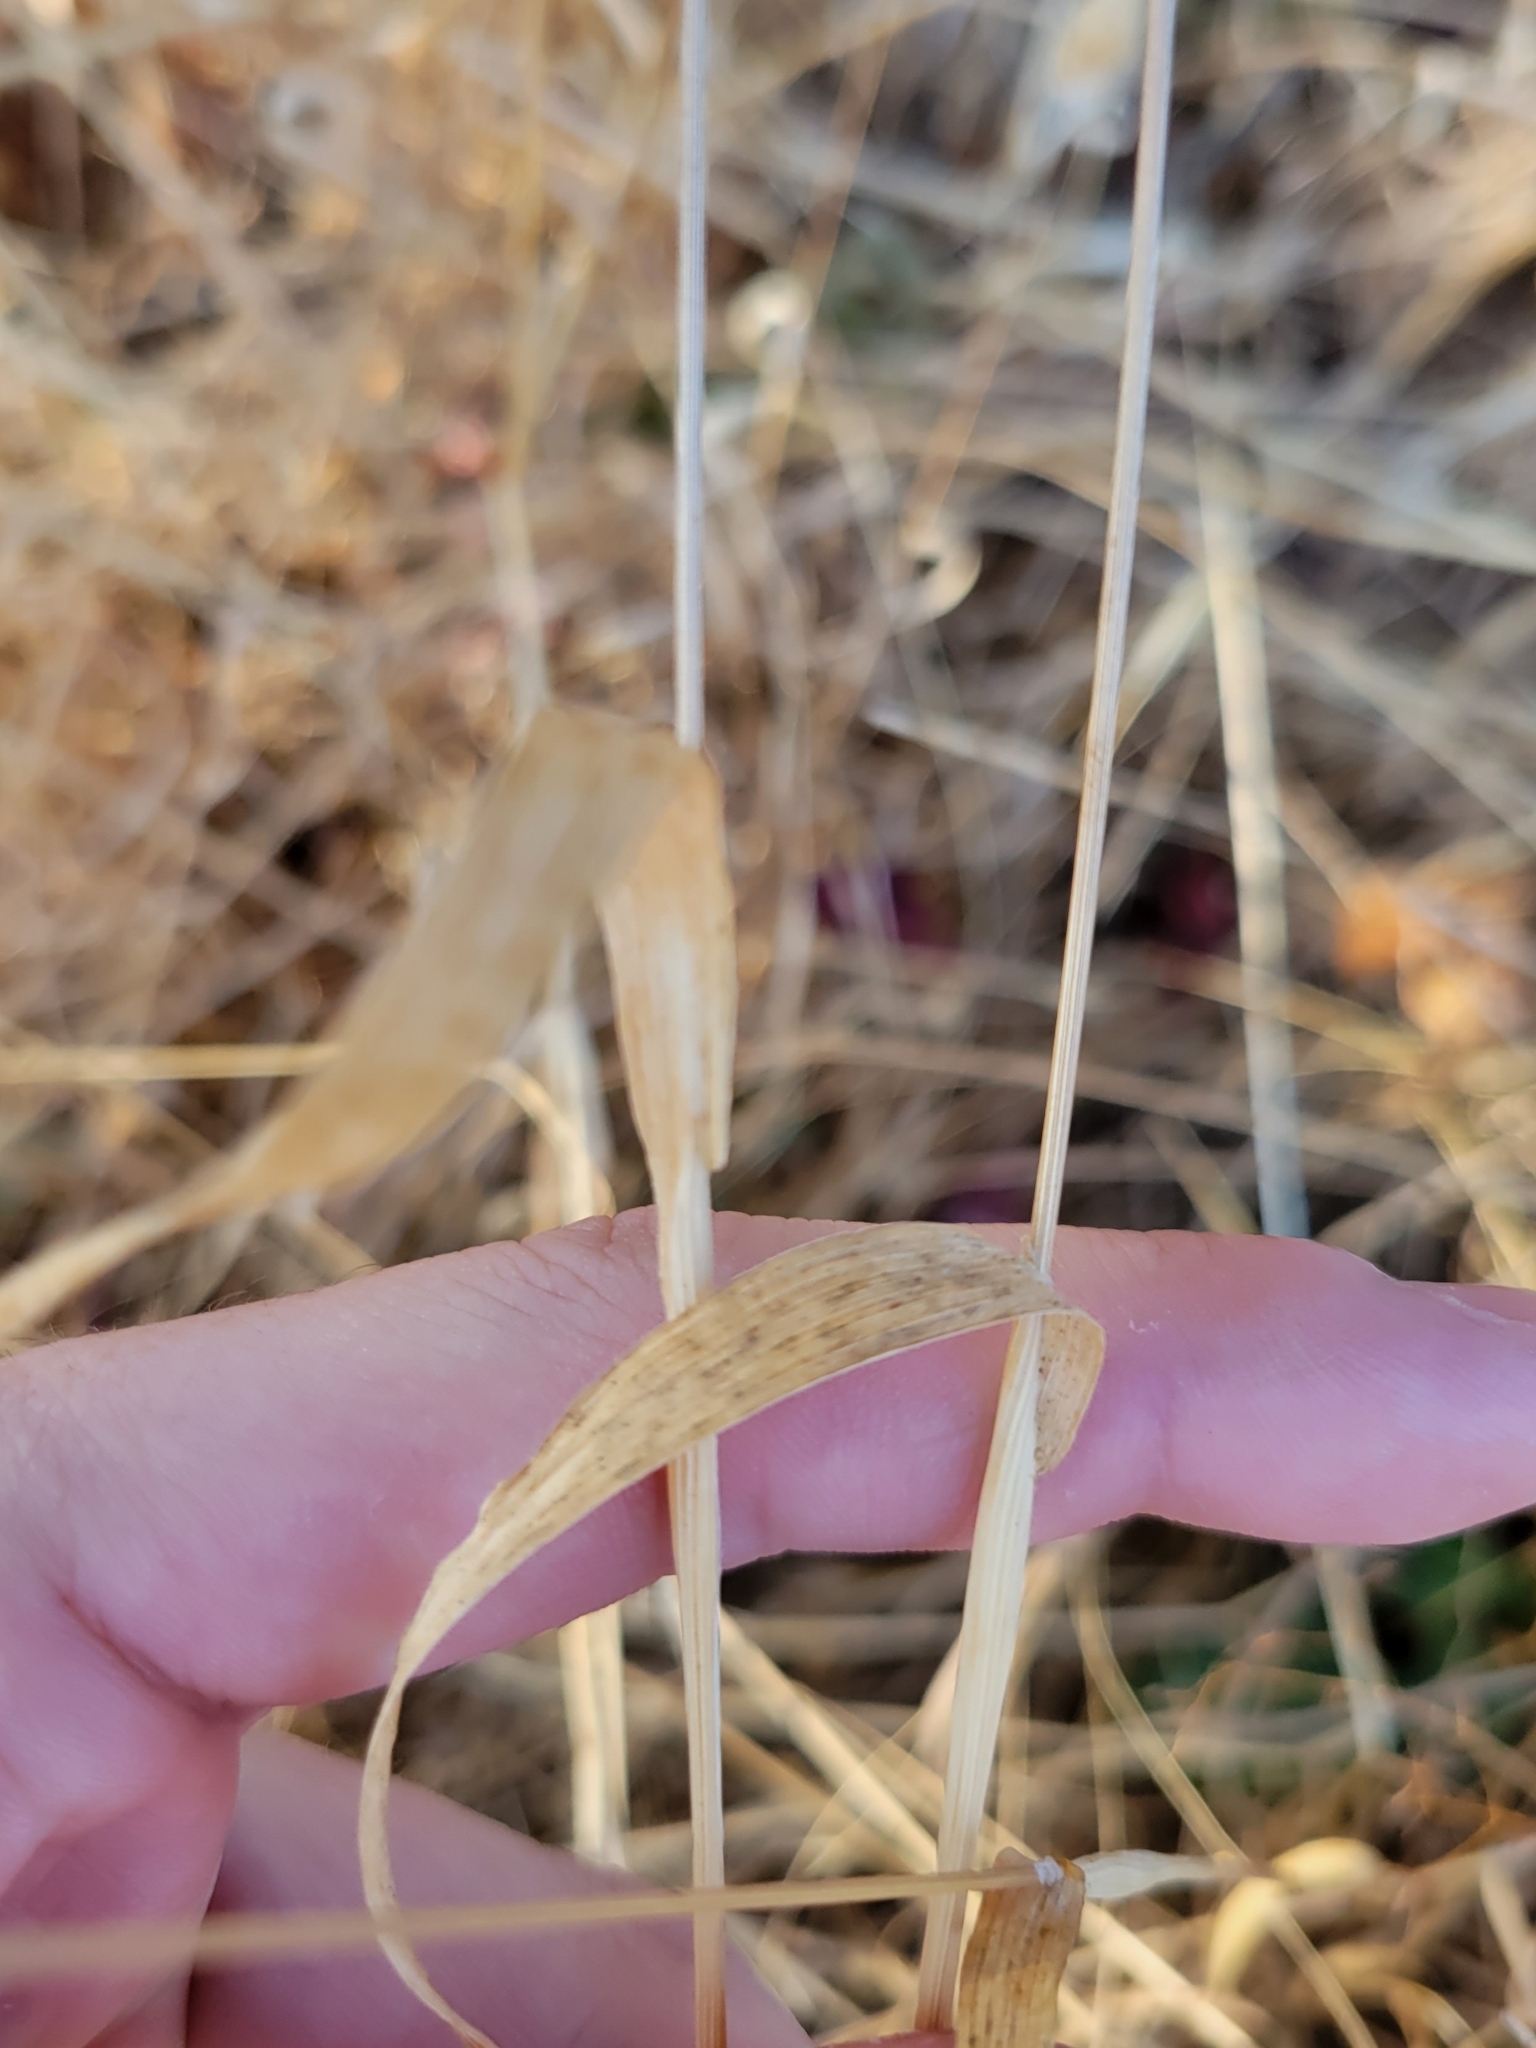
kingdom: Plantae
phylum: Tracheophyta
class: Liliopsida
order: Poales
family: Poaceae
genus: Cynosurus
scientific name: Cynosurus echinatus
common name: Rough dog's-tail
